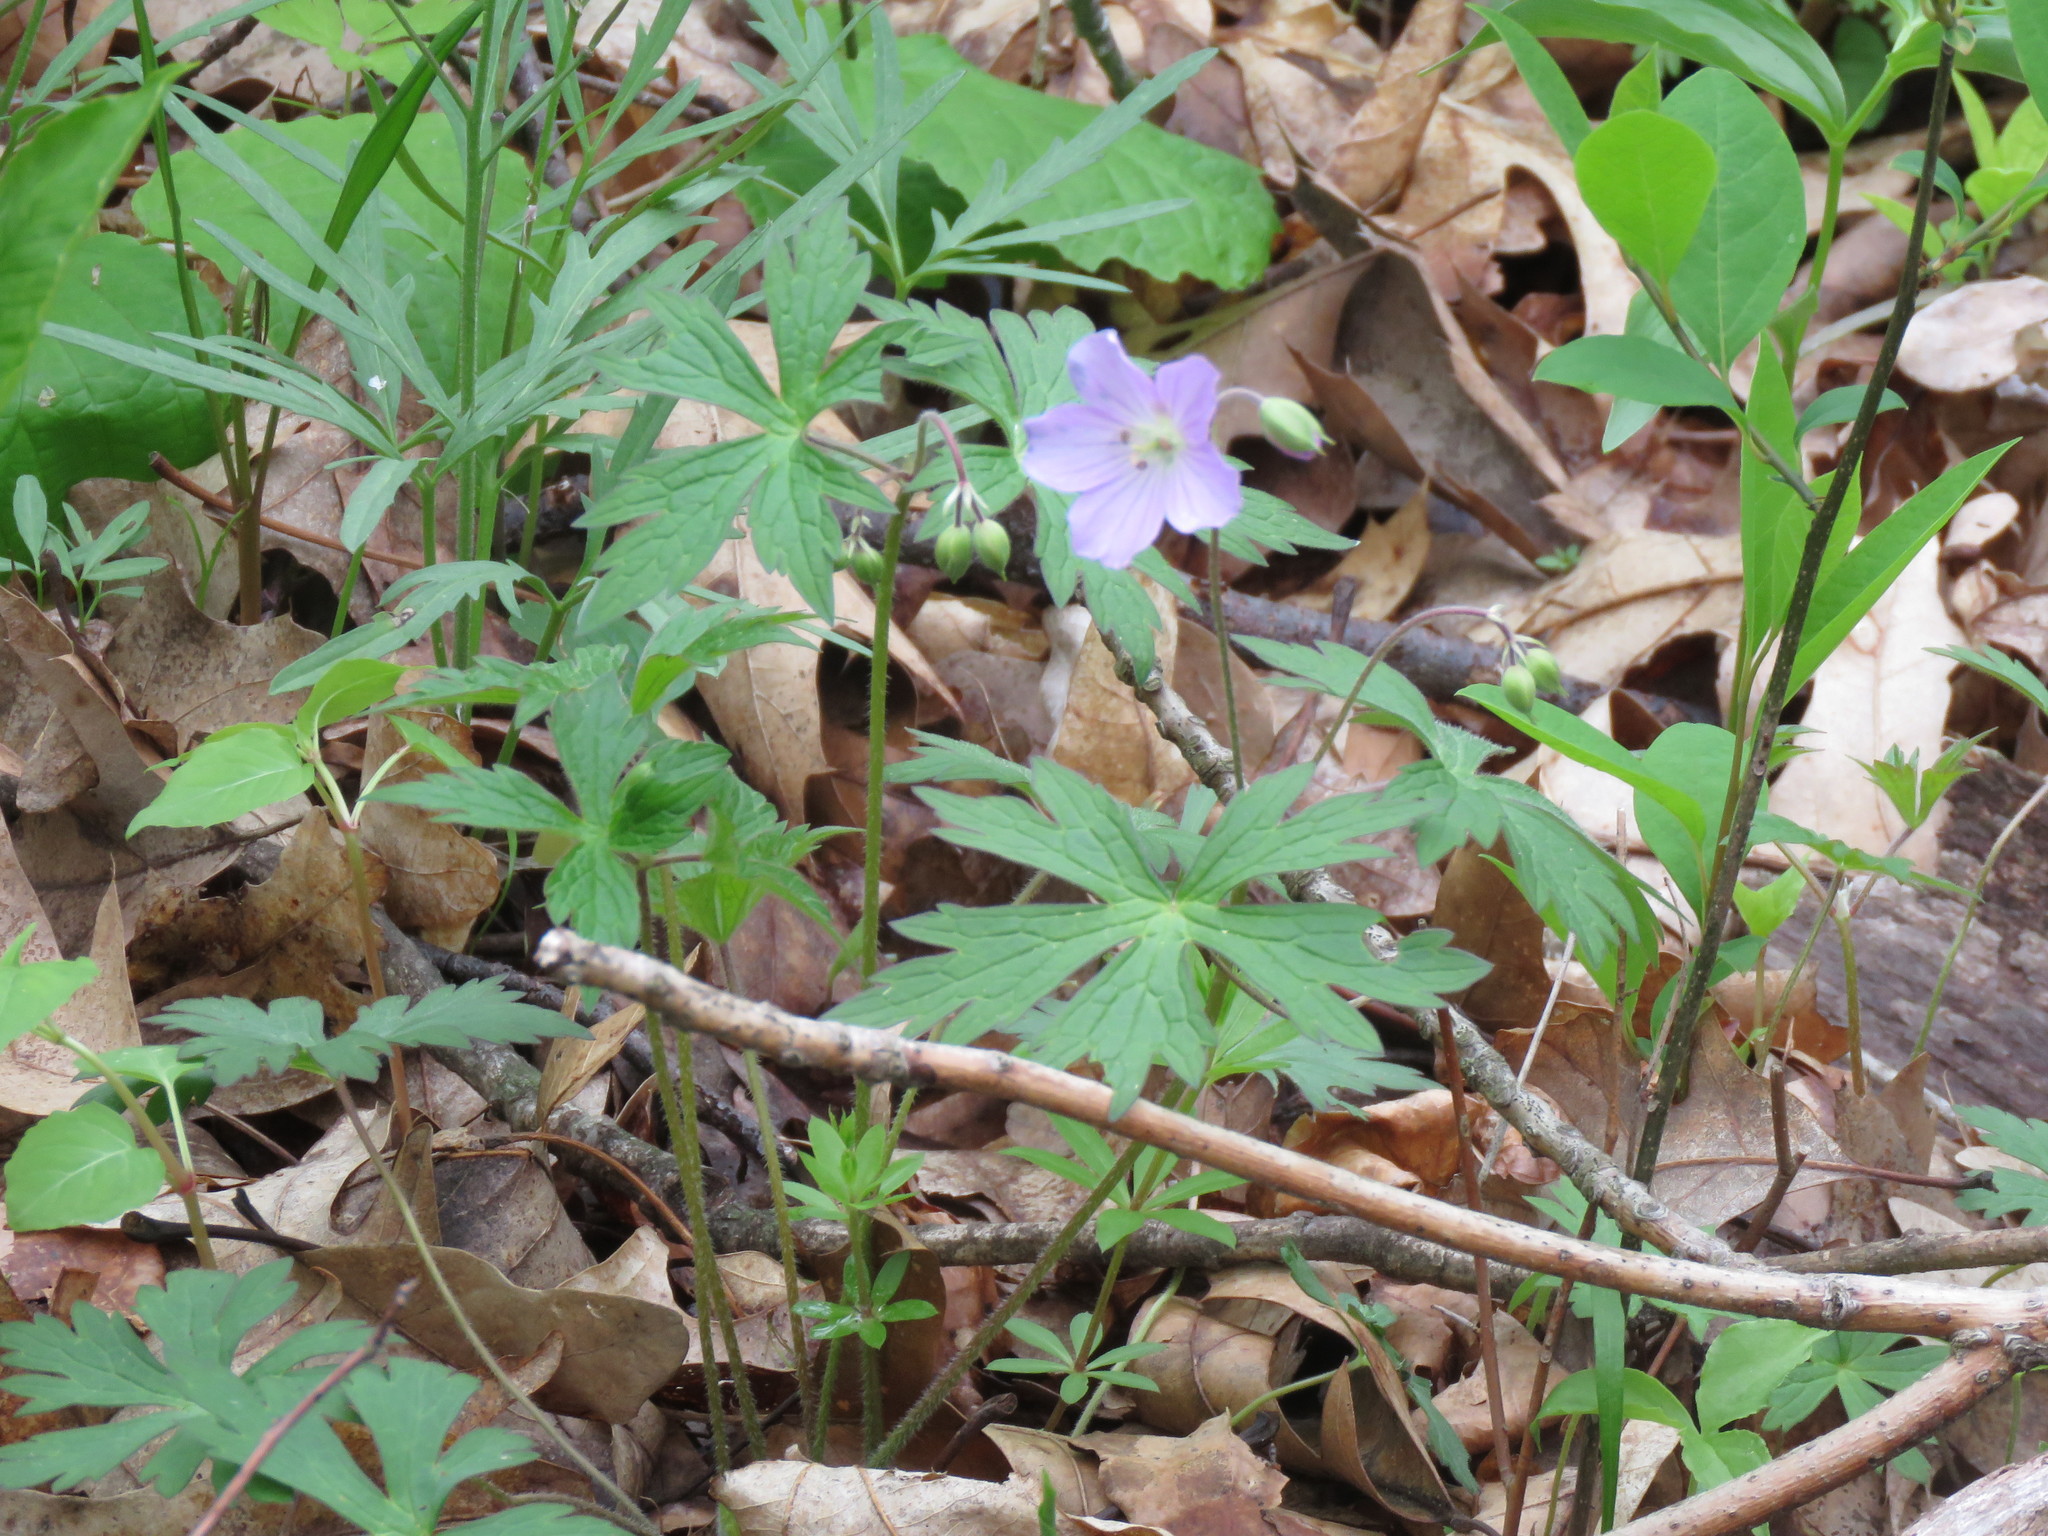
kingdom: Plantae
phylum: Tracheophyta
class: Magnoliopsida
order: Geraniales
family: Geraniaceae
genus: Geranium
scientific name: Geranium maculatum
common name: Spotted geranium
